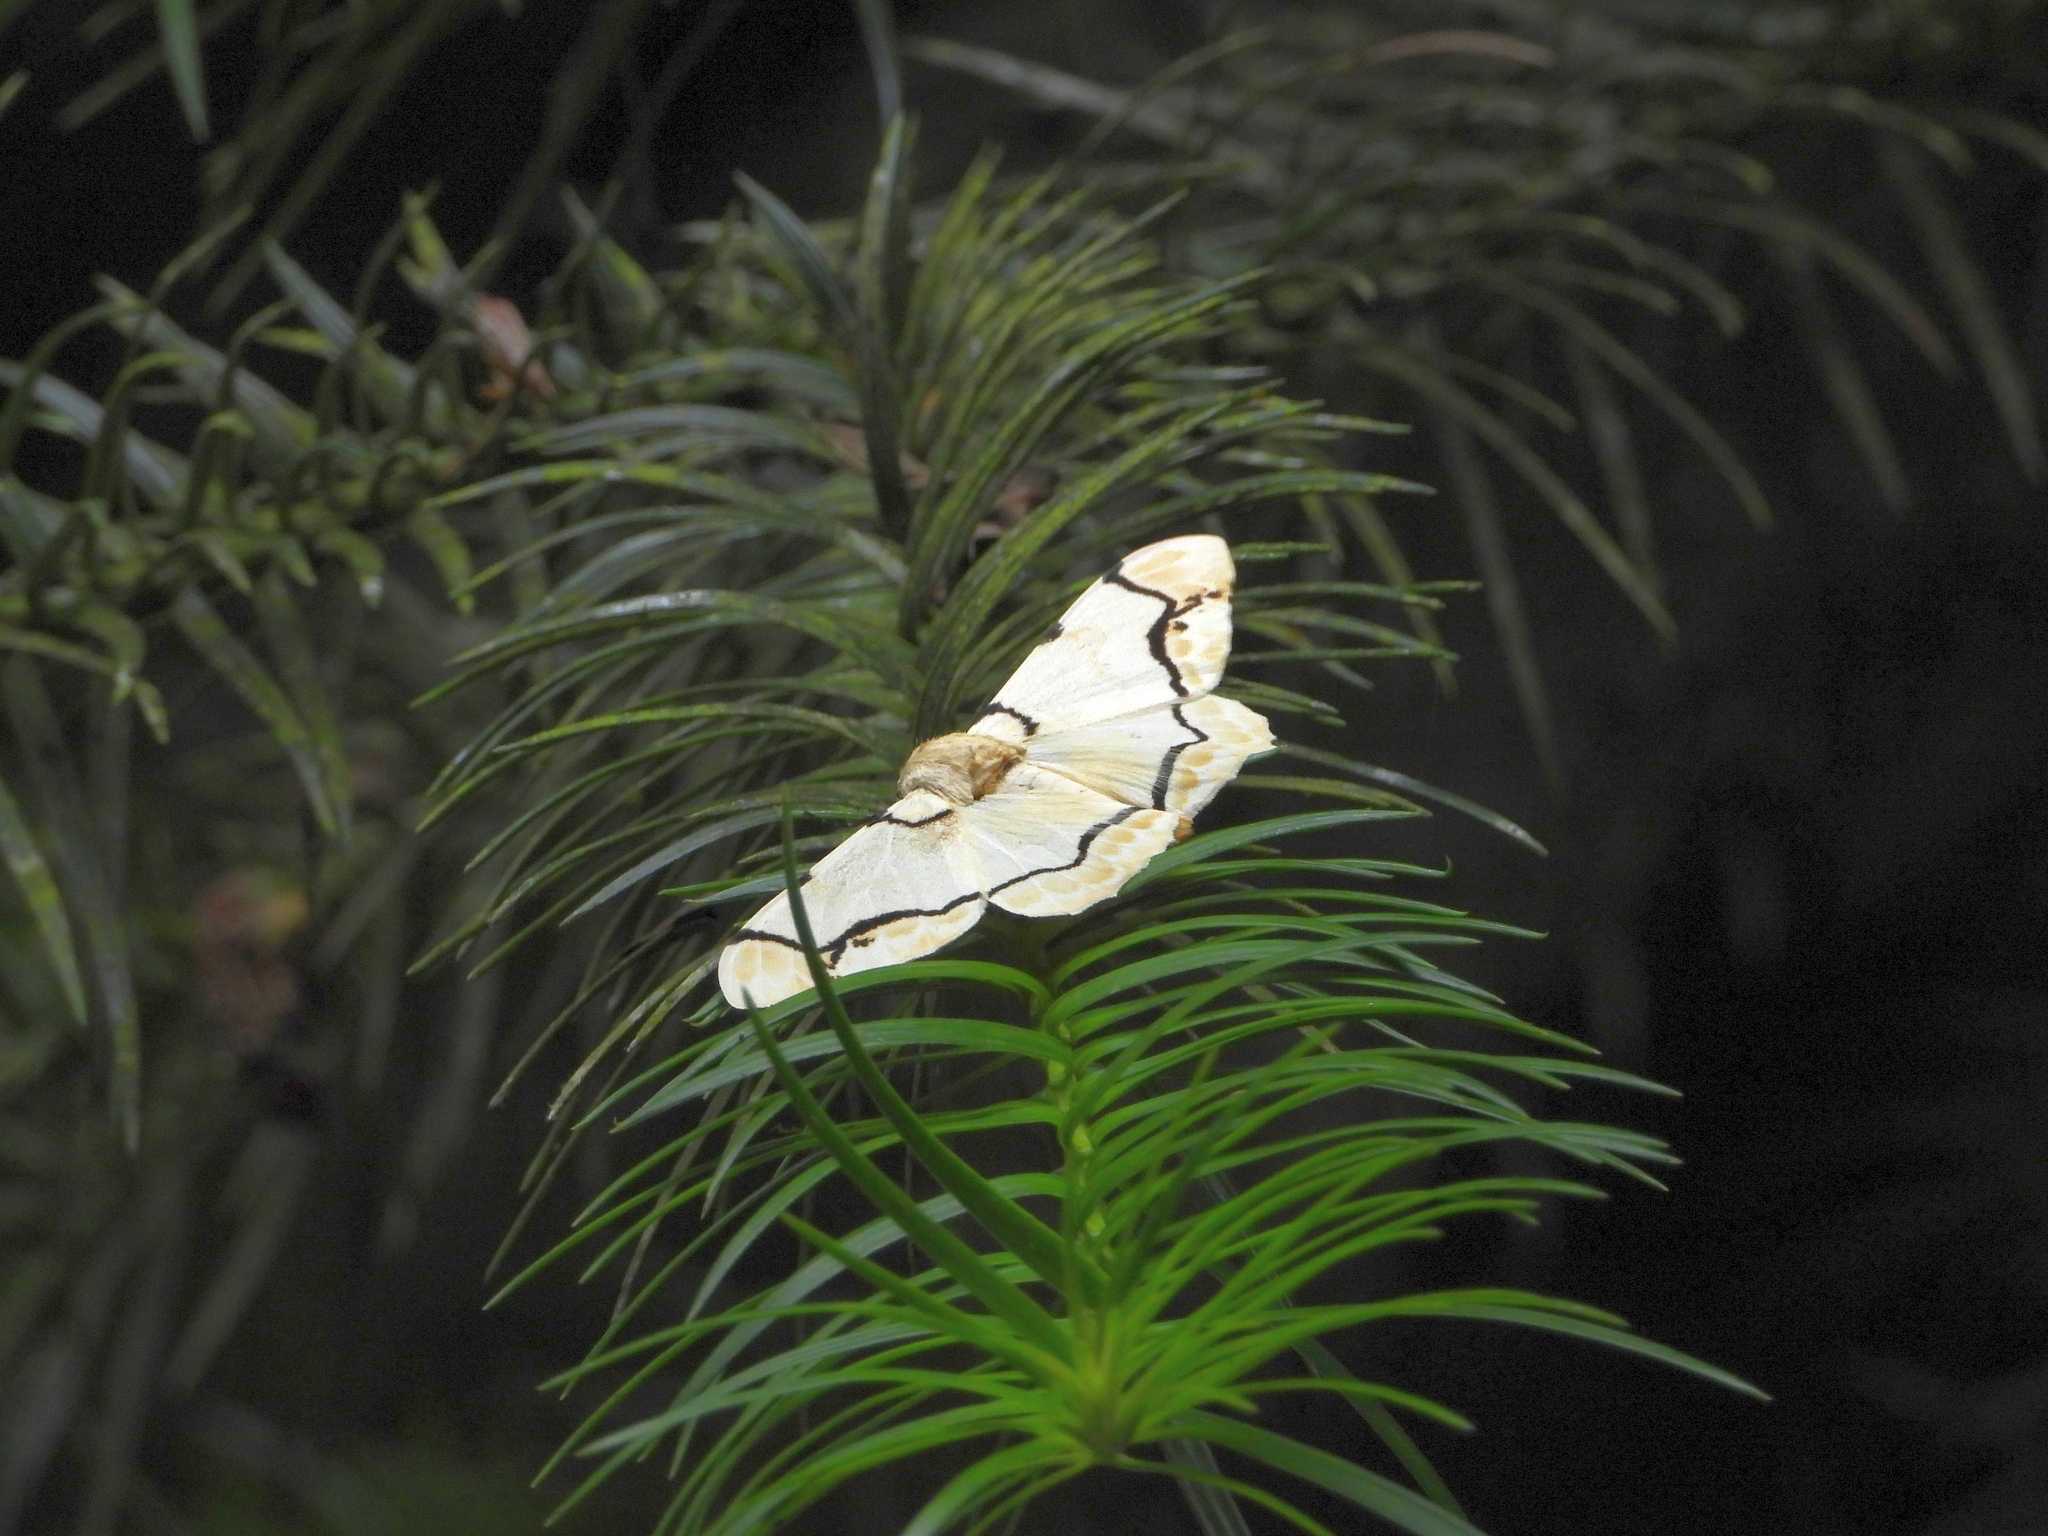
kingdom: Animalia
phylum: Arthropoda
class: Insecta
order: Lepidoptera
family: Geometridae
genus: Biston
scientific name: Biston perclara
